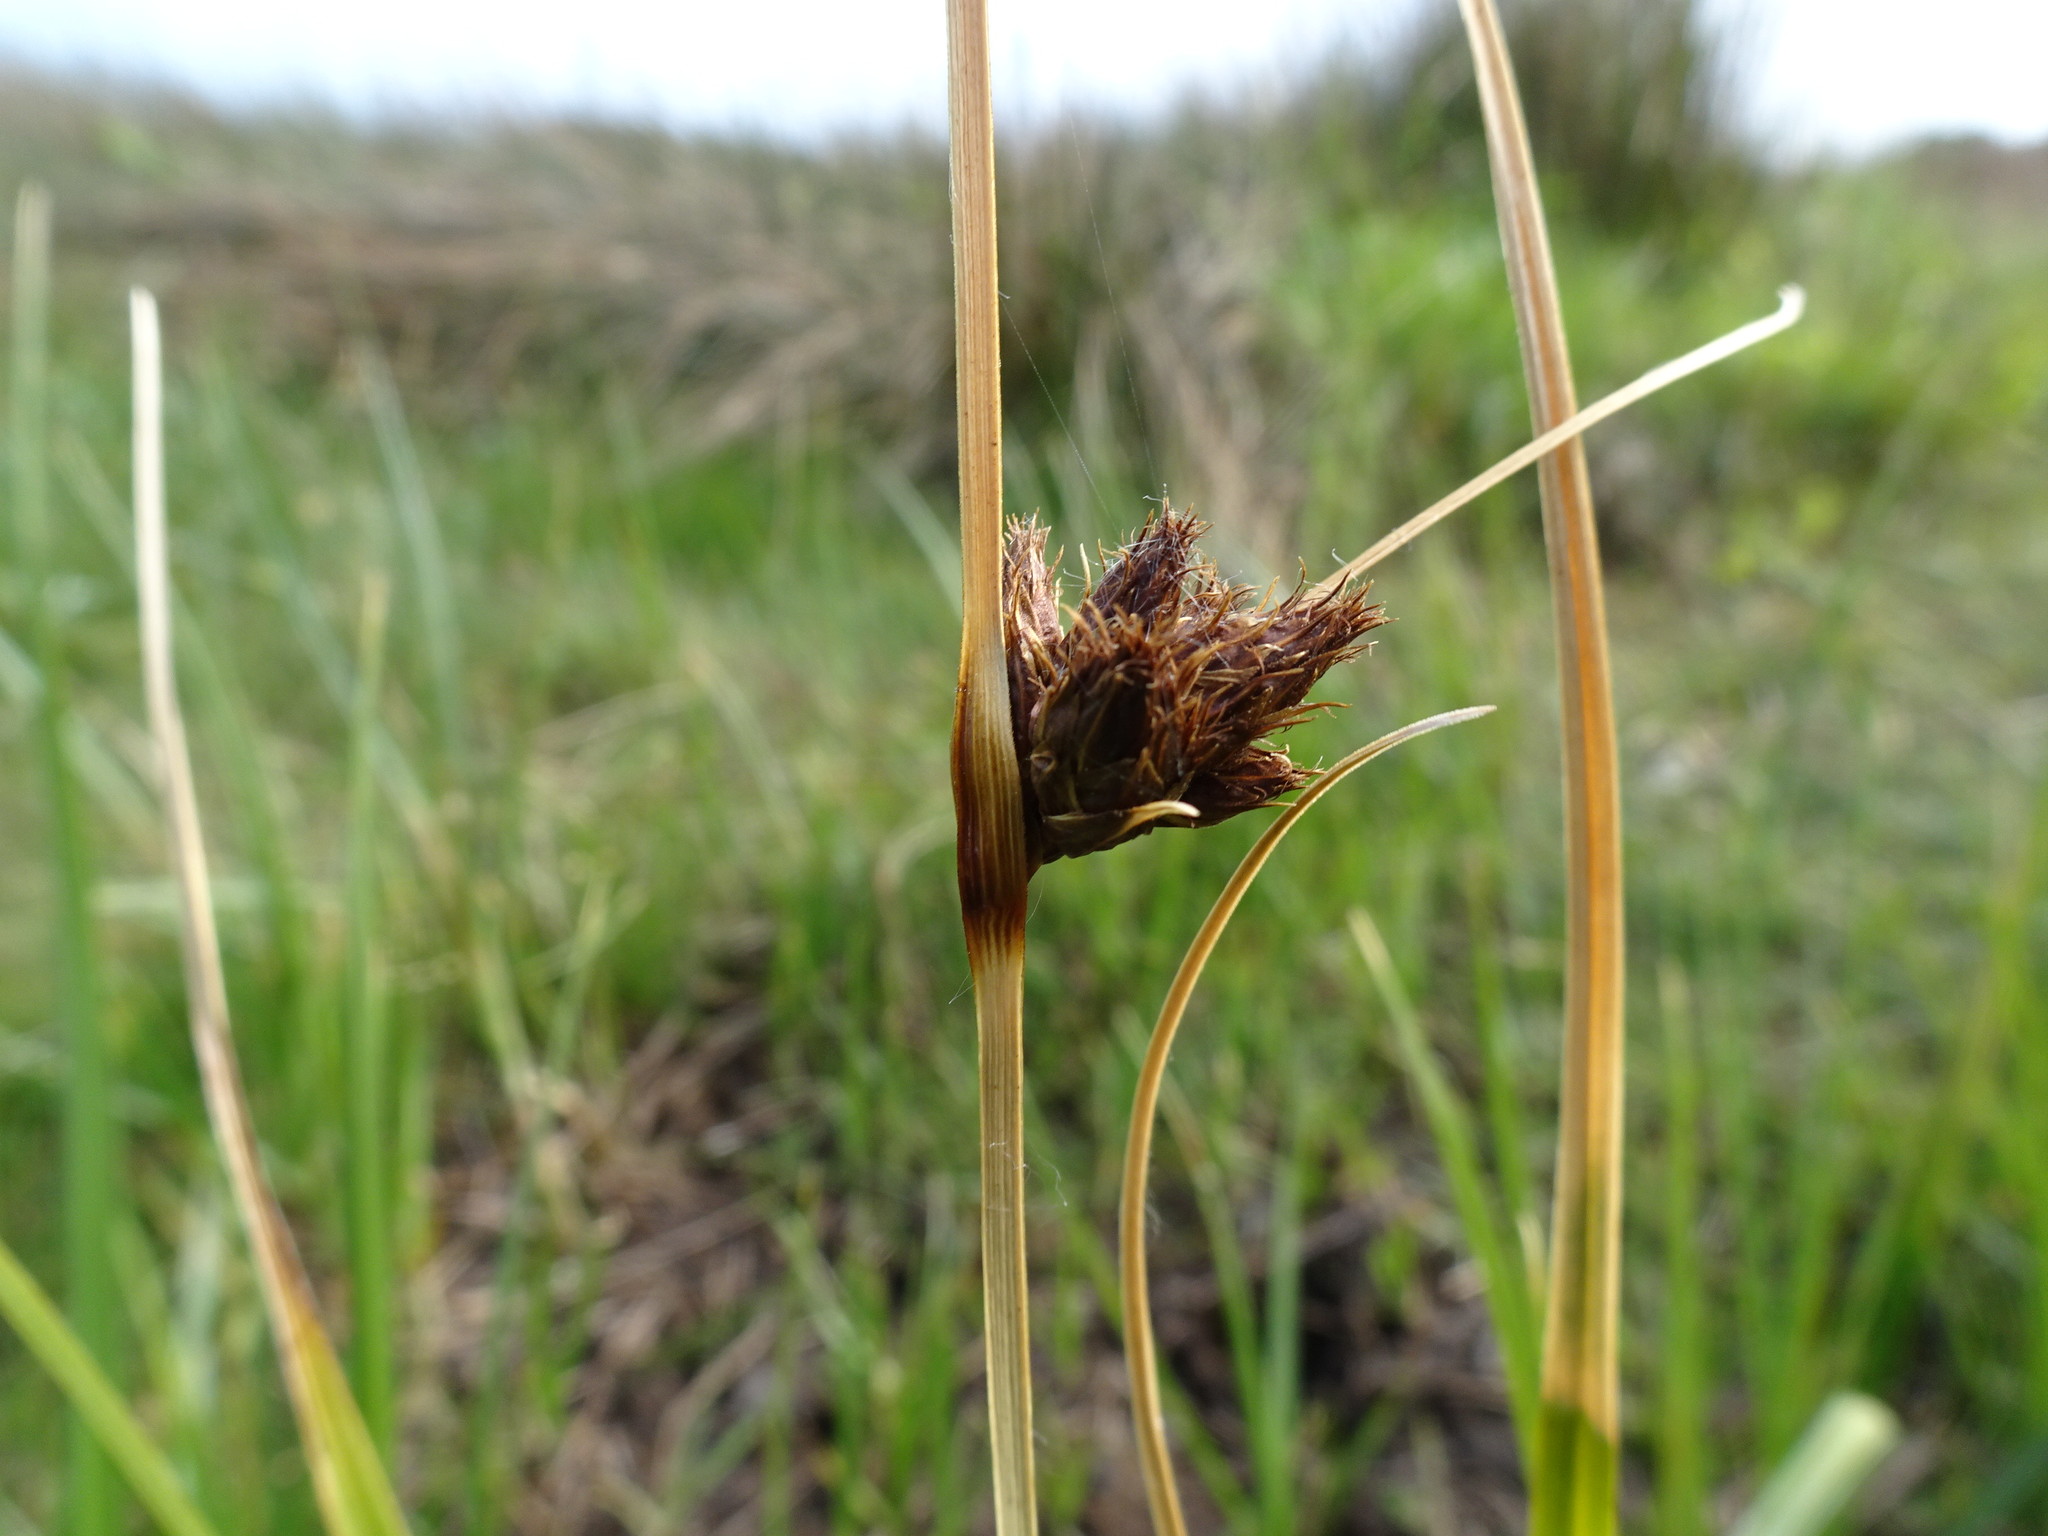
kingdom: Plantae
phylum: Tracheophyta
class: Liliopsida
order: Poales
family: Cyperaceae
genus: Bolboschoenus
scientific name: Bolboschoenus maritimus
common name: Sea club-rush
